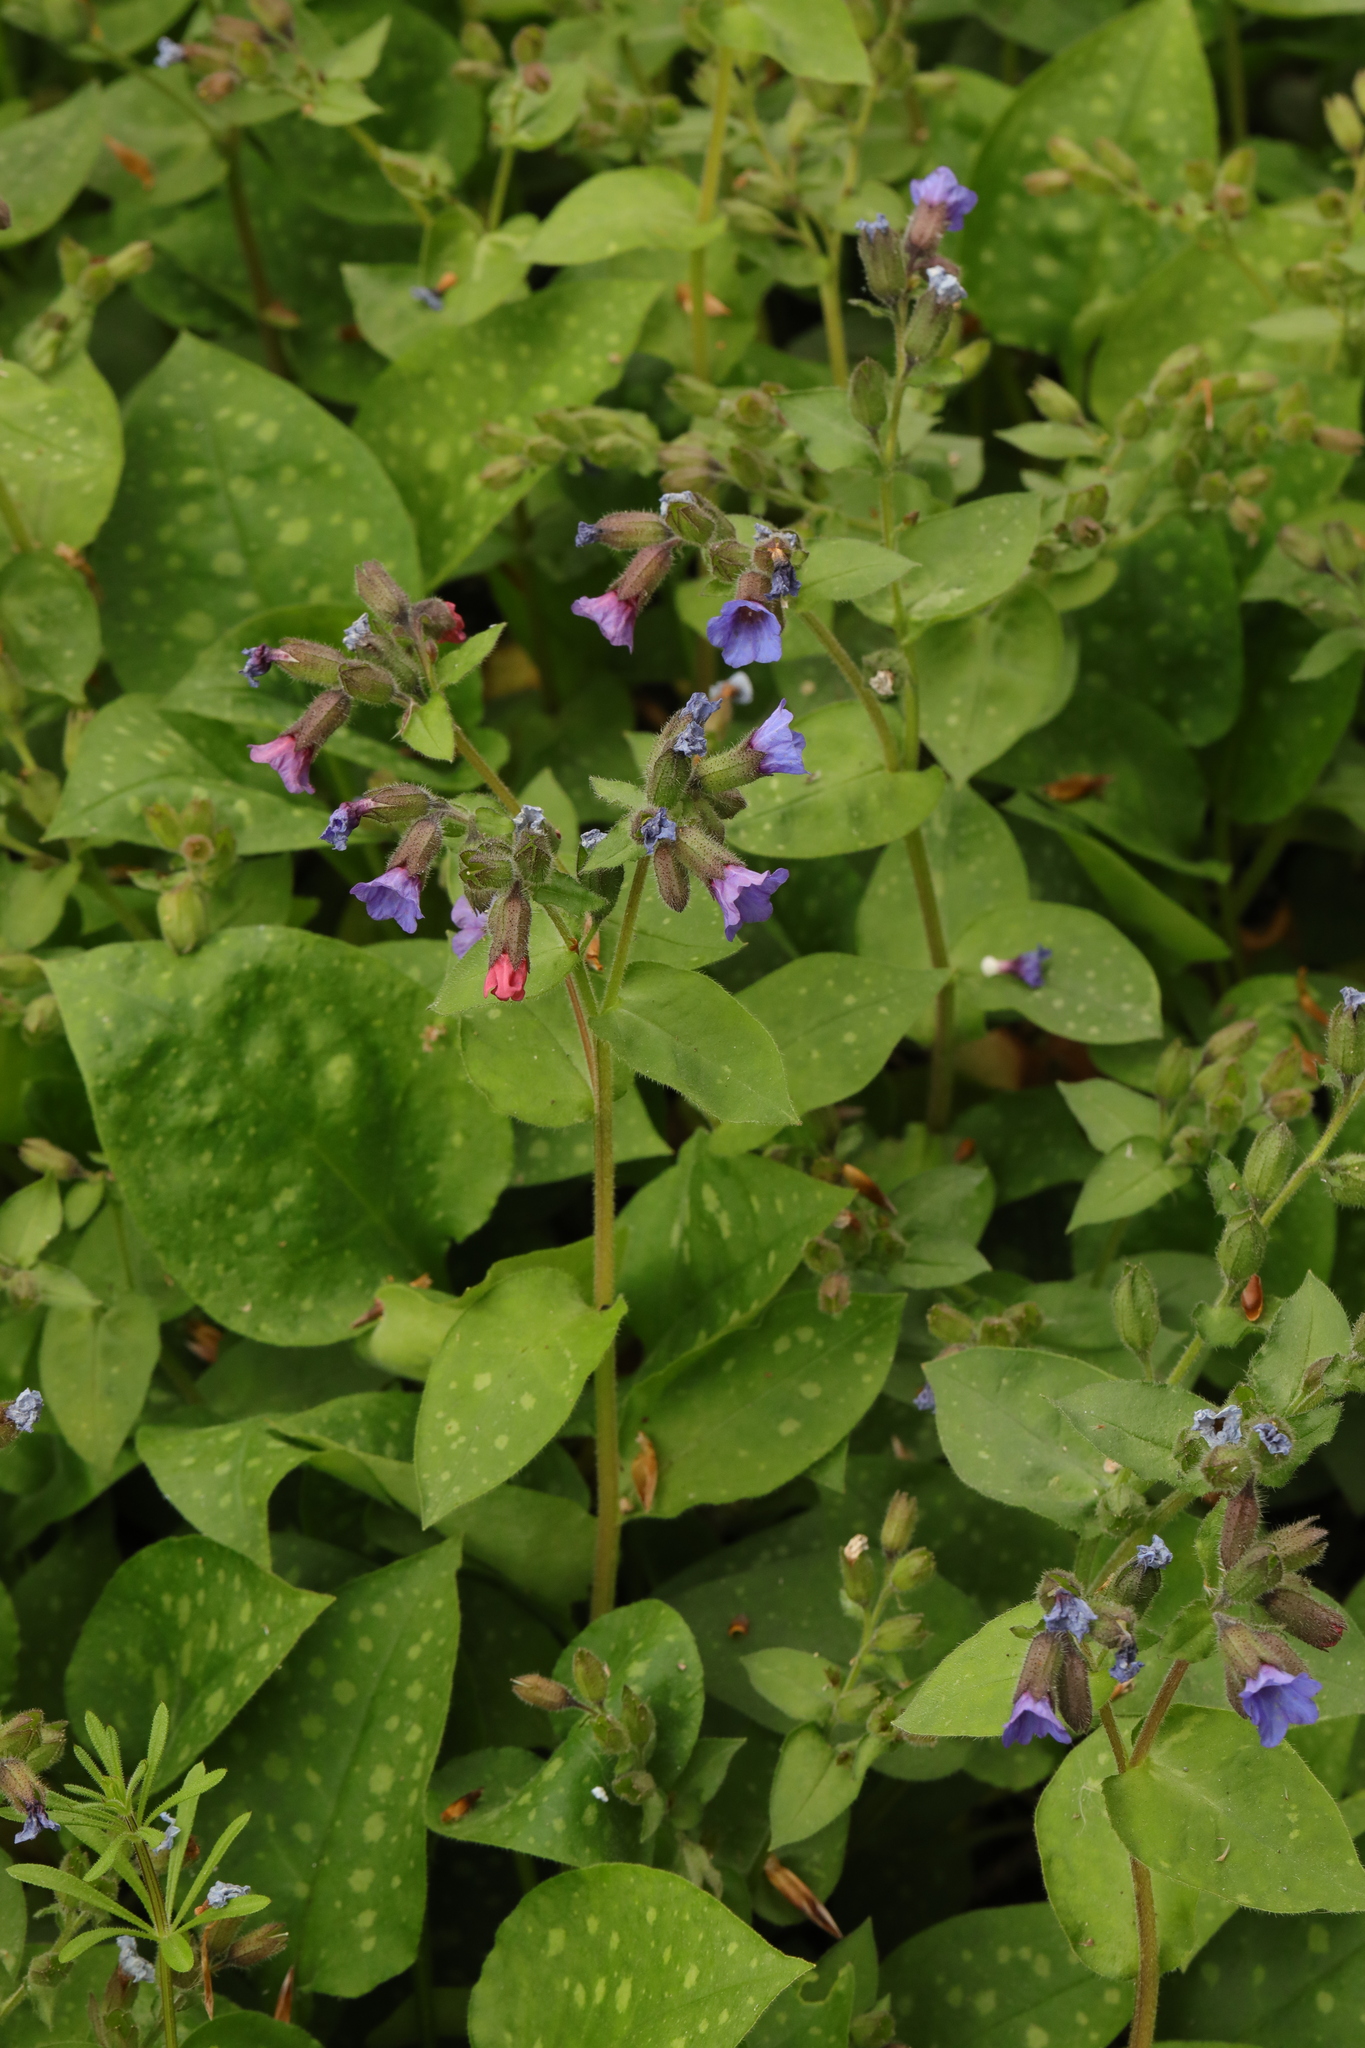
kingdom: Plantae
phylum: Tracheophyta
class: Magnoliopsida
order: Boraginales
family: Boraginaceae
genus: Pulmonaria
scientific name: Pulmonaria officinalis
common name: Lungwort
